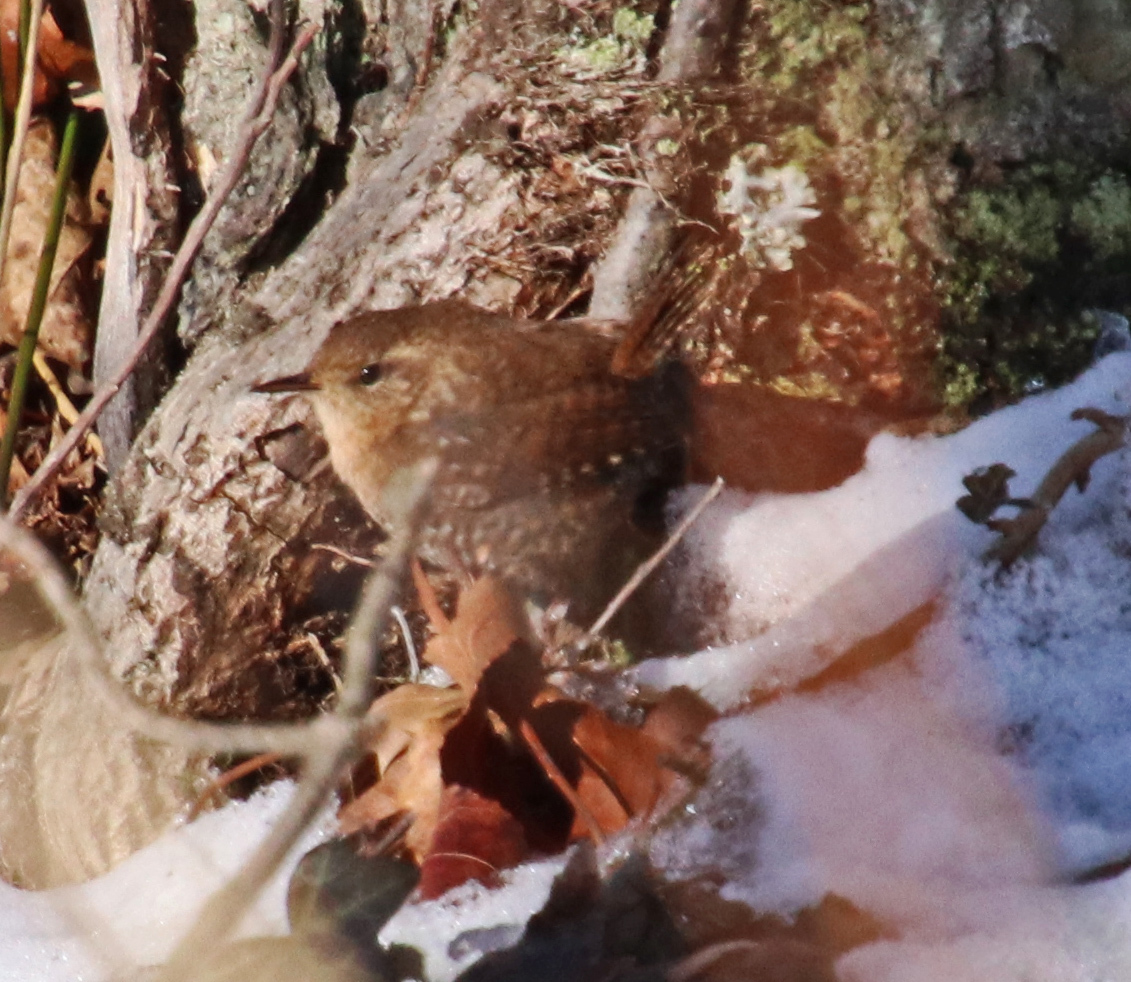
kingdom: Animalia
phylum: Chordata
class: Aves
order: Passeriformes
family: Troglodytidae
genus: Troglodytes
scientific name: Troglodytes hiemalis
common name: Winter wren
